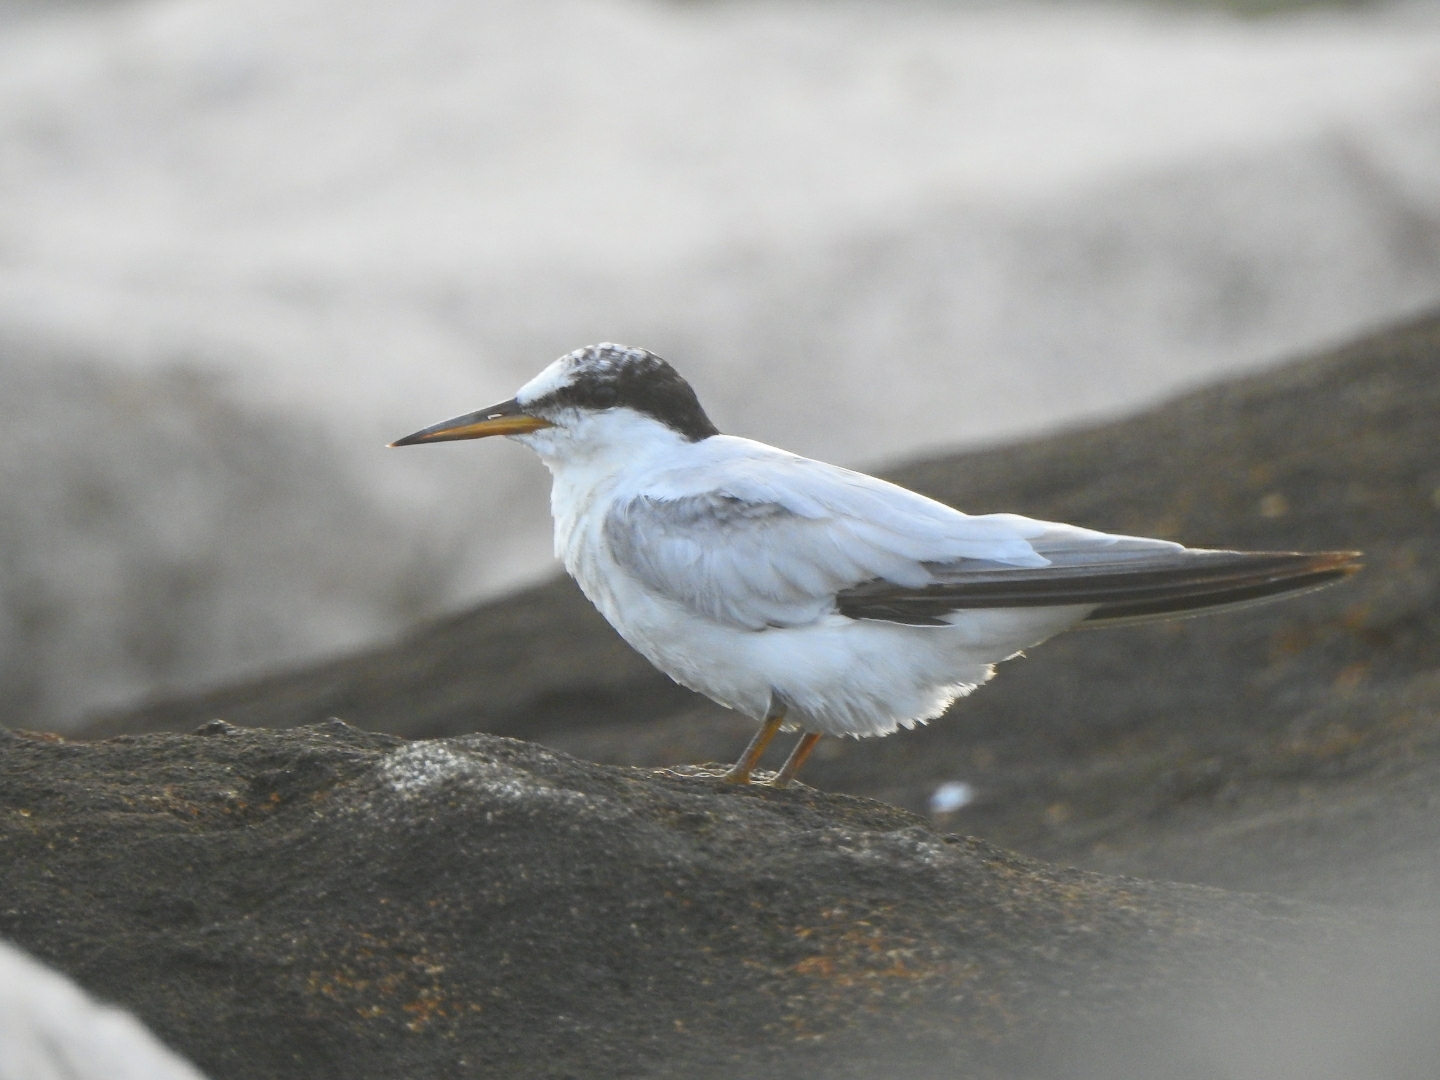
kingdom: Animalia
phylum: Chordata
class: Aves
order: Charadriiformes
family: Laridae
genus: Sternula
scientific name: Sternula saundersi
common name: Saunders's tern
